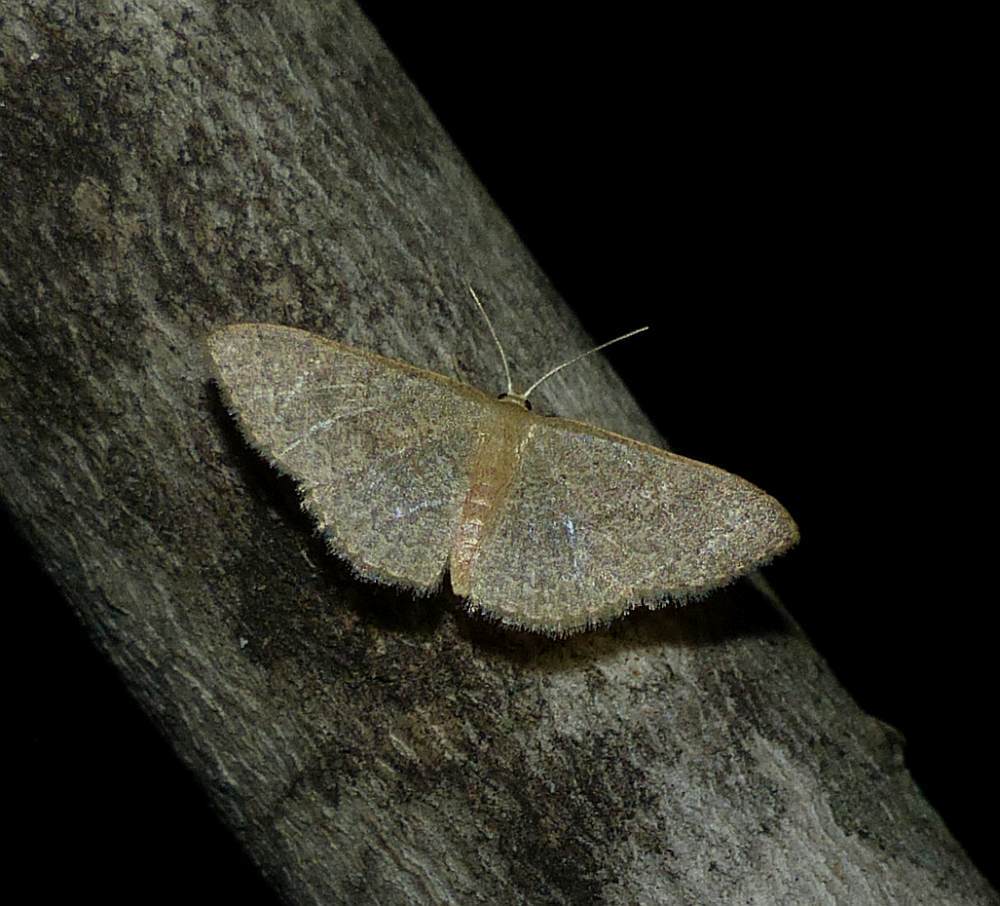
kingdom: Animalia
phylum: Arthropoda
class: Insecta
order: Lepidoptera
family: Geometridae
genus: Pleuroprucha
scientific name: Pleuroprucha insulsaria
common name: Common tan wave
